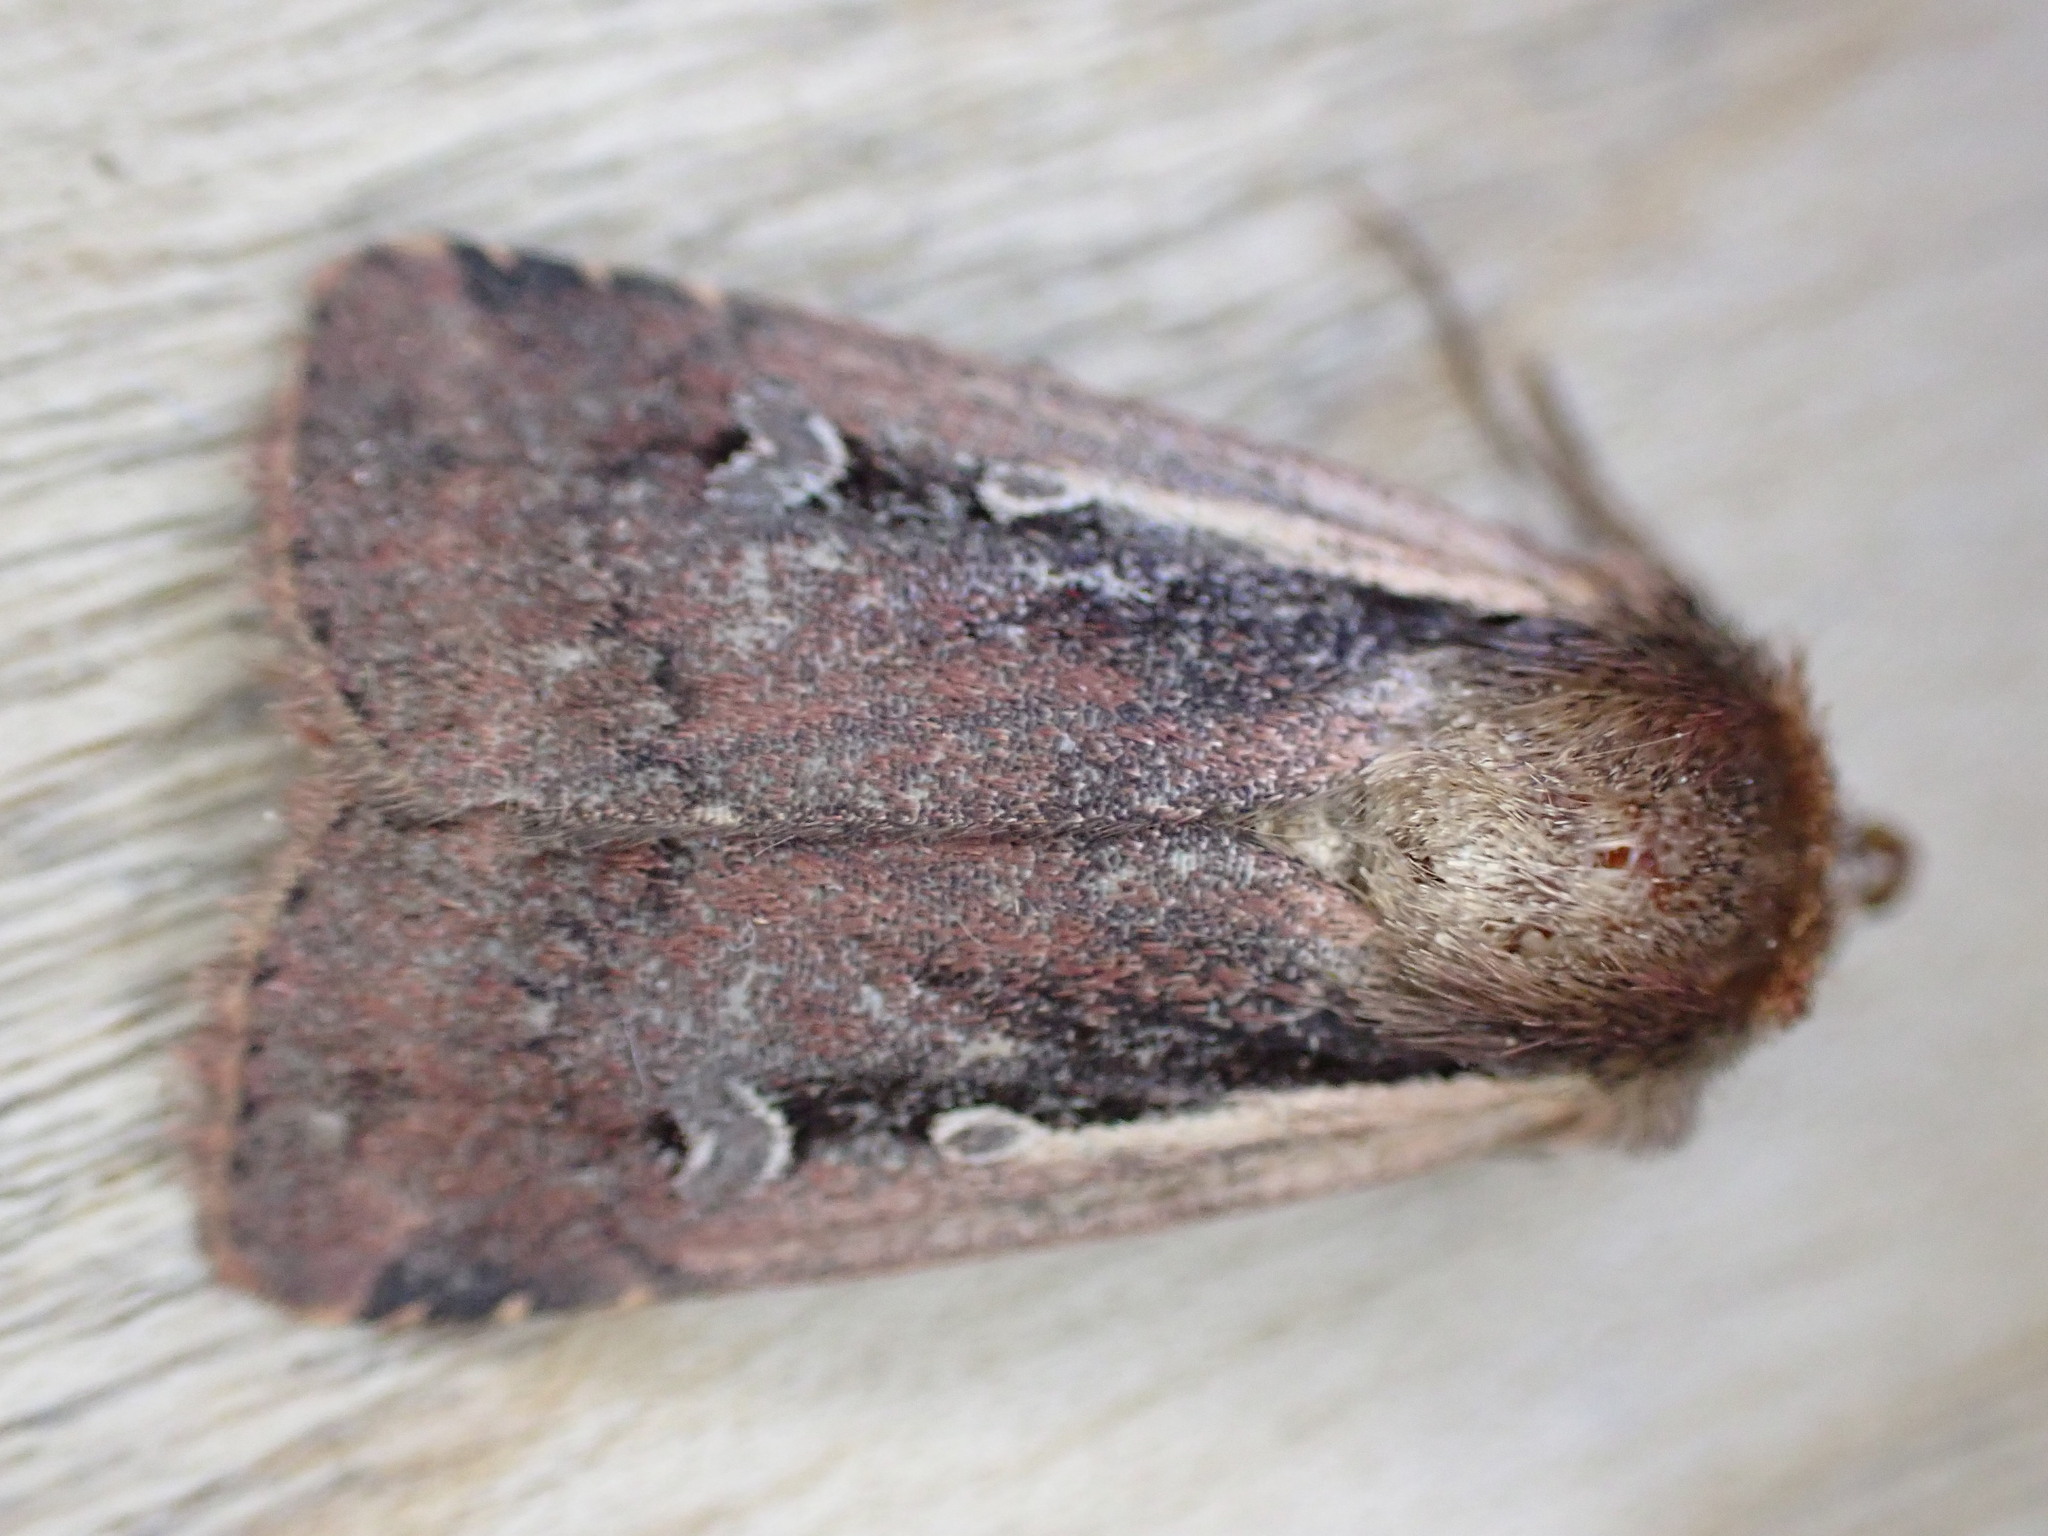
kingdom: Animalia
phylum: Arthropoda
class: Insecta
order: Lepidoptera
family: Noctuidae
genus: Ochropleura
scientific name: Ochropleura plecta
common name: Flame shoulder
